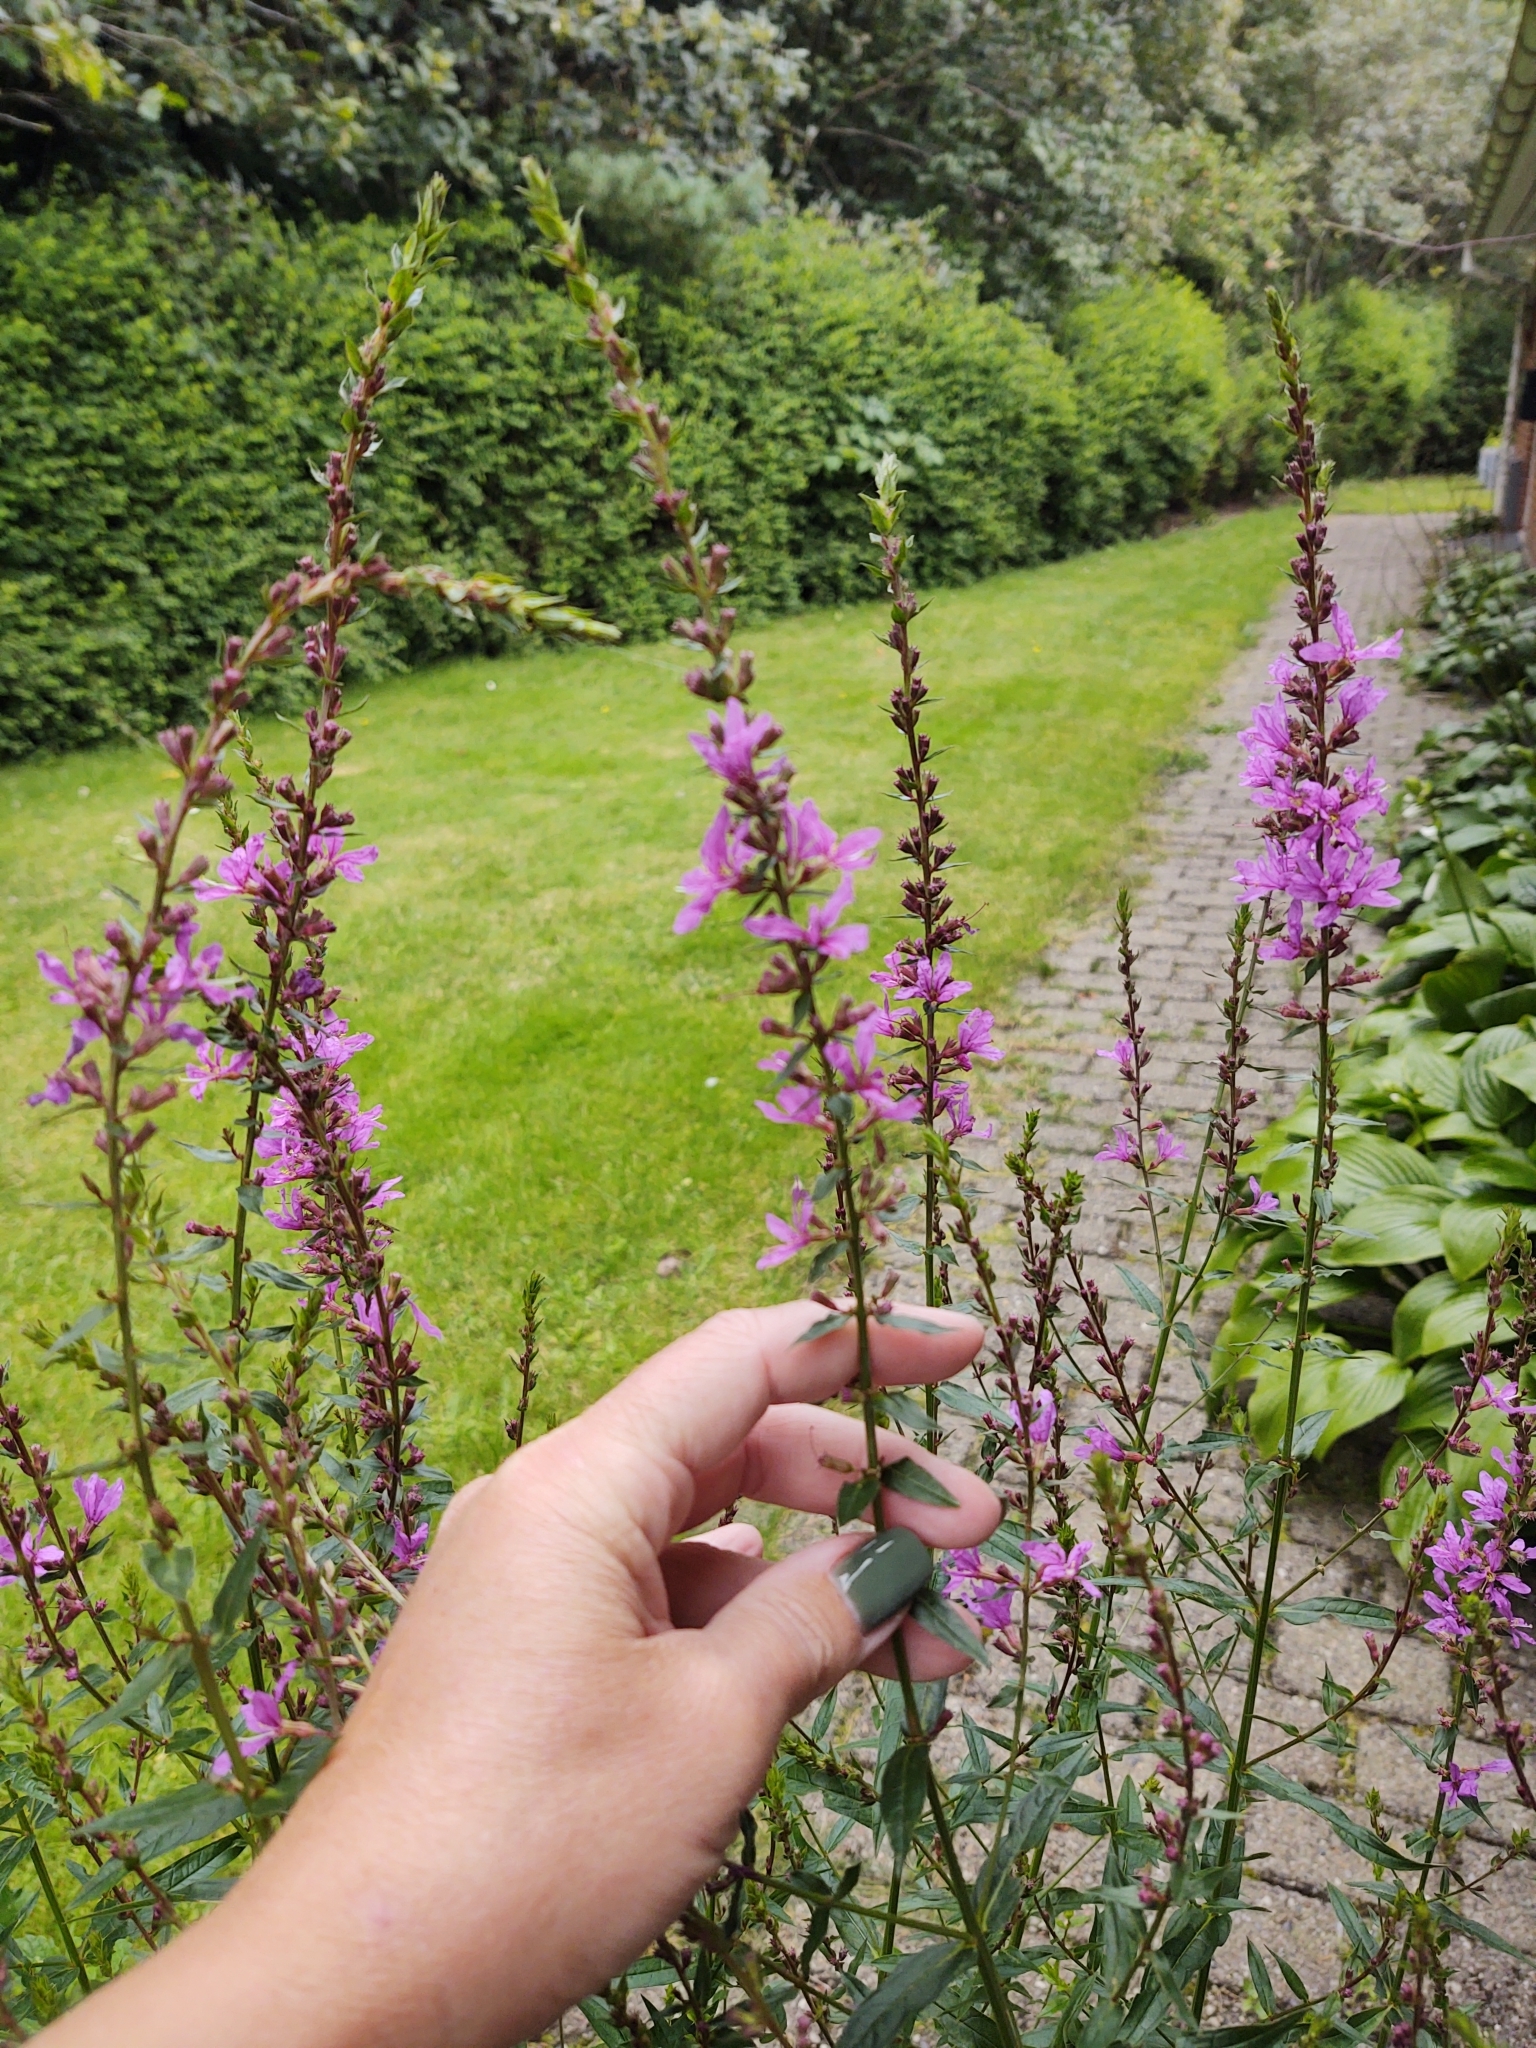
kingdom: Plantae
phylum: Tracheophyta
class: Magnoliopsida
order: Myrtales
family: Lythraceae
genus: Lythrum
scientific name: Lythrum salicaria
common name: Purple loosestrife
